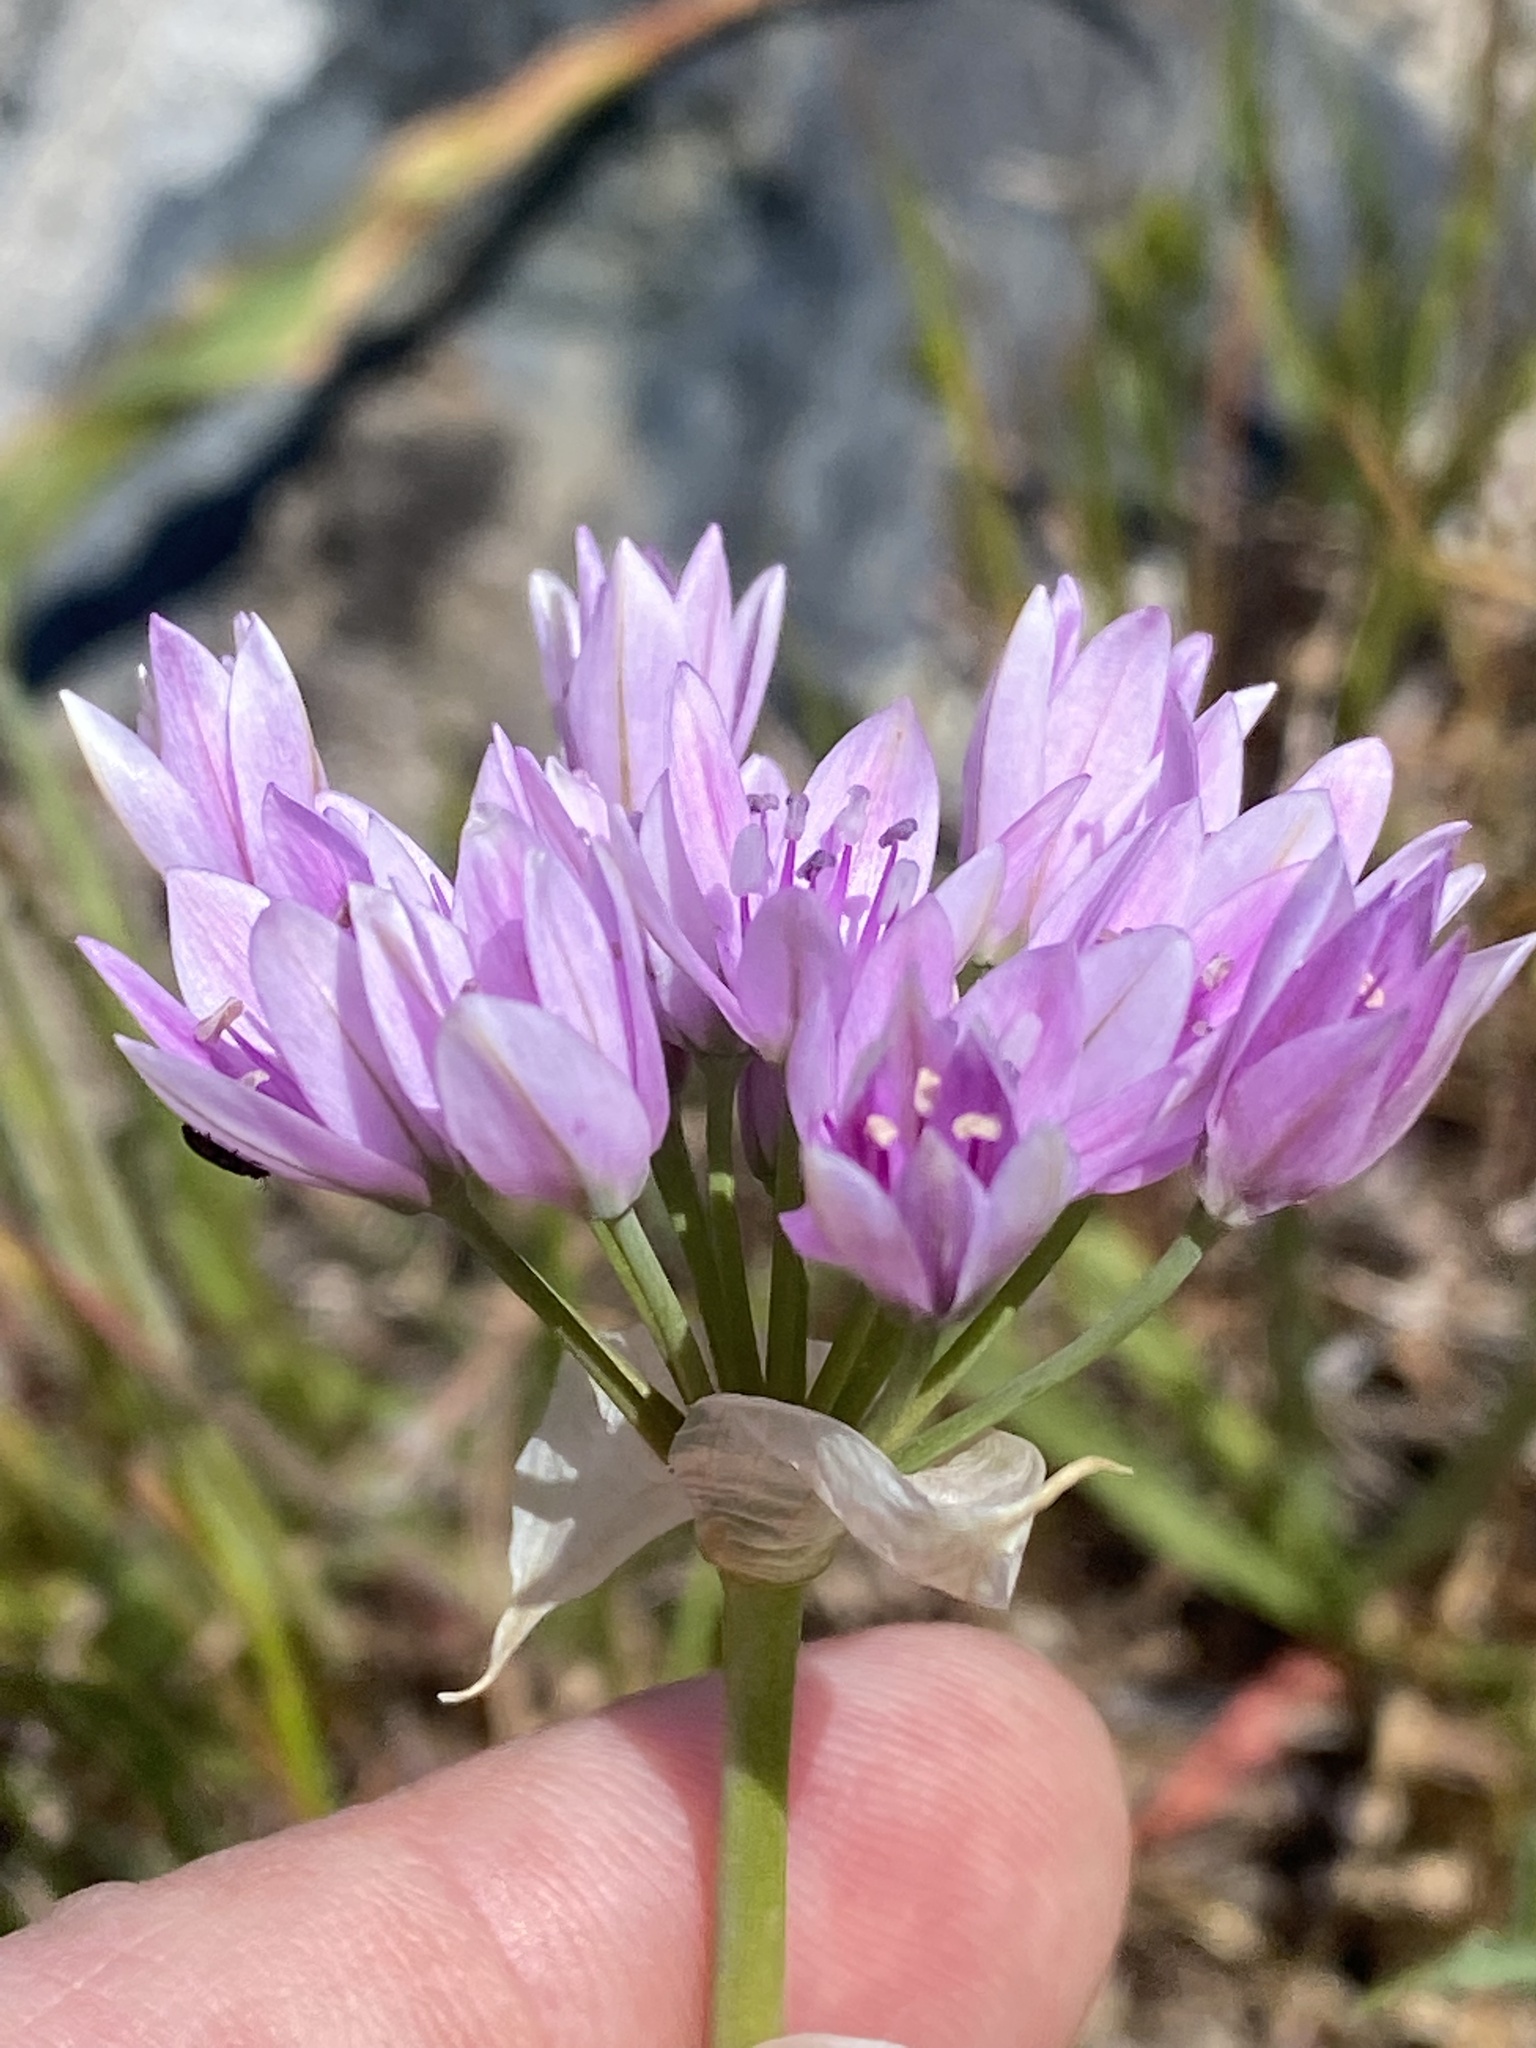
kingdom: Plantae
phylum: Tracheophyta
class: Liliopsida
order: Asparagales
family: Amaryllidaceae
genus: Allium
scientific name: Allium unifolium
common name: American garlic
